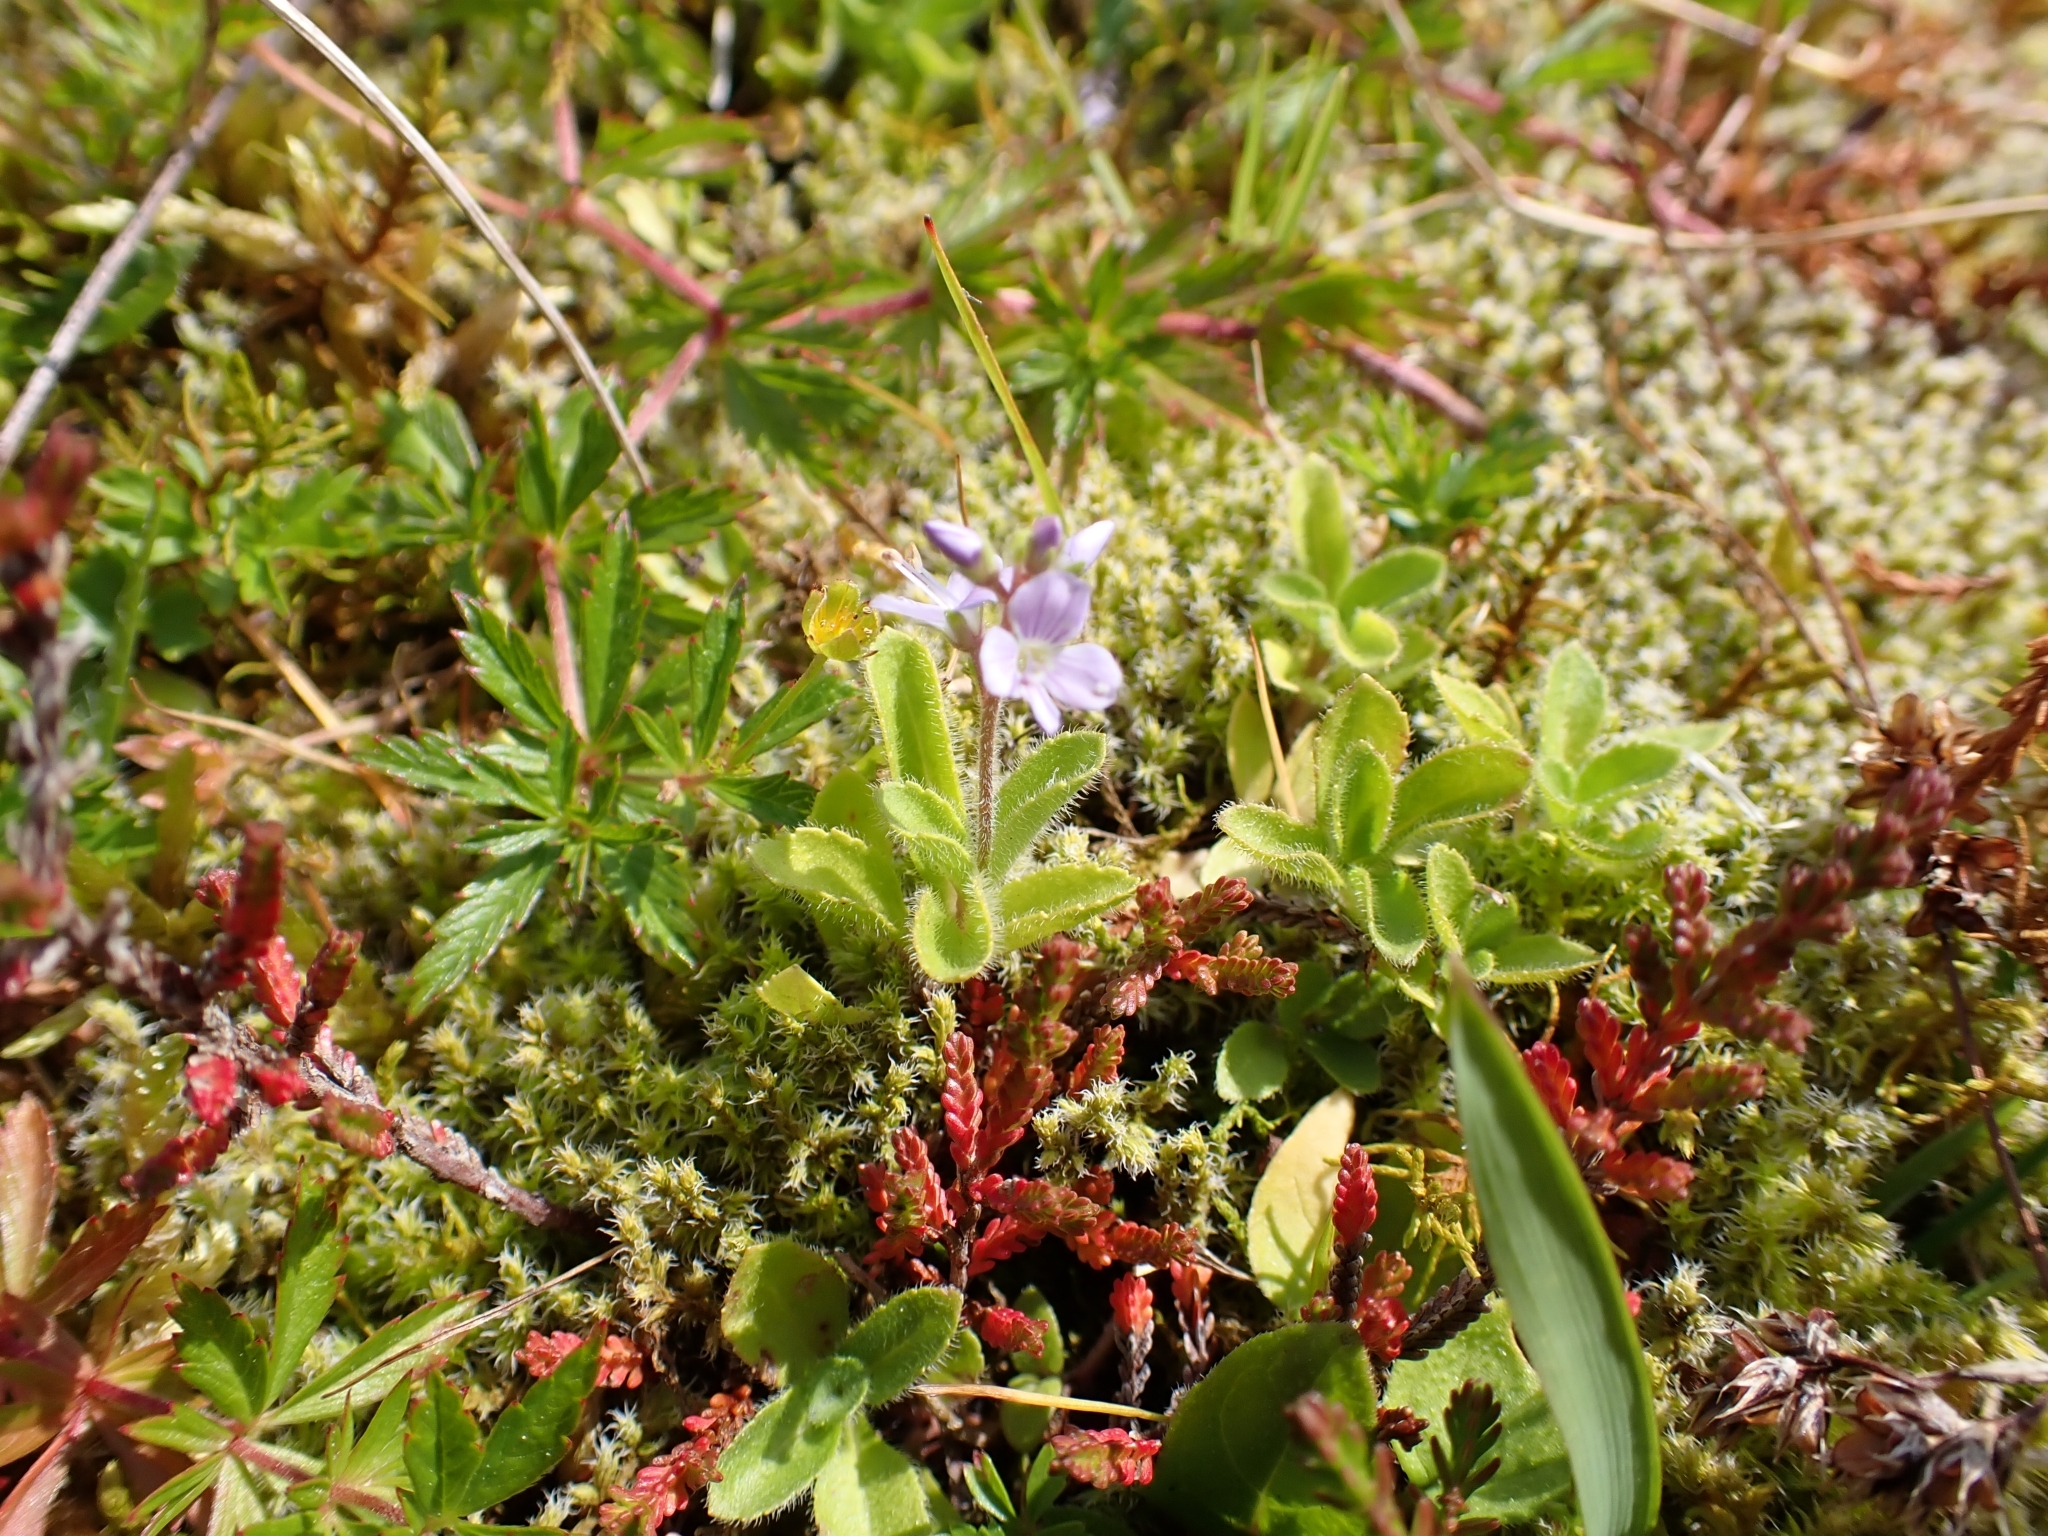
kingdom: Plantae
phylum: Tracheophyta
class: Magnoliopsida
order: Lamiales
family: Plantaginaceae
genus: Veronica
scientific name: Veronica officinalis
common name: Common speedwell
